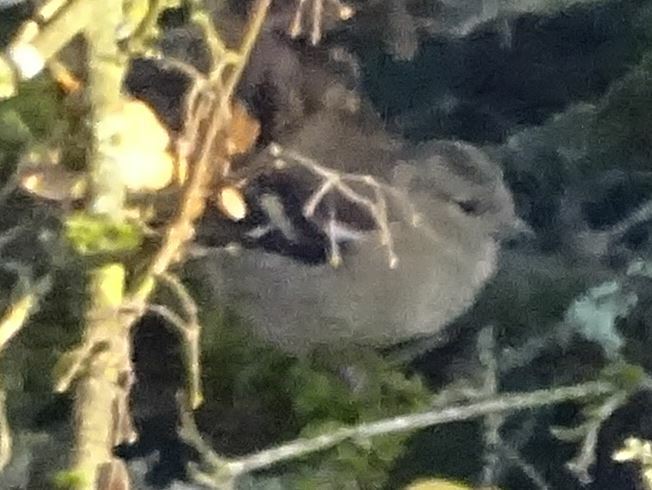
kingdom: Animalia
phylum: Chordata
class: Aves
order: Passeriformes
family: Fringillidae
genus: Fringilla
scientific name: Fringilla coelebs
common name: Common chaffinch
